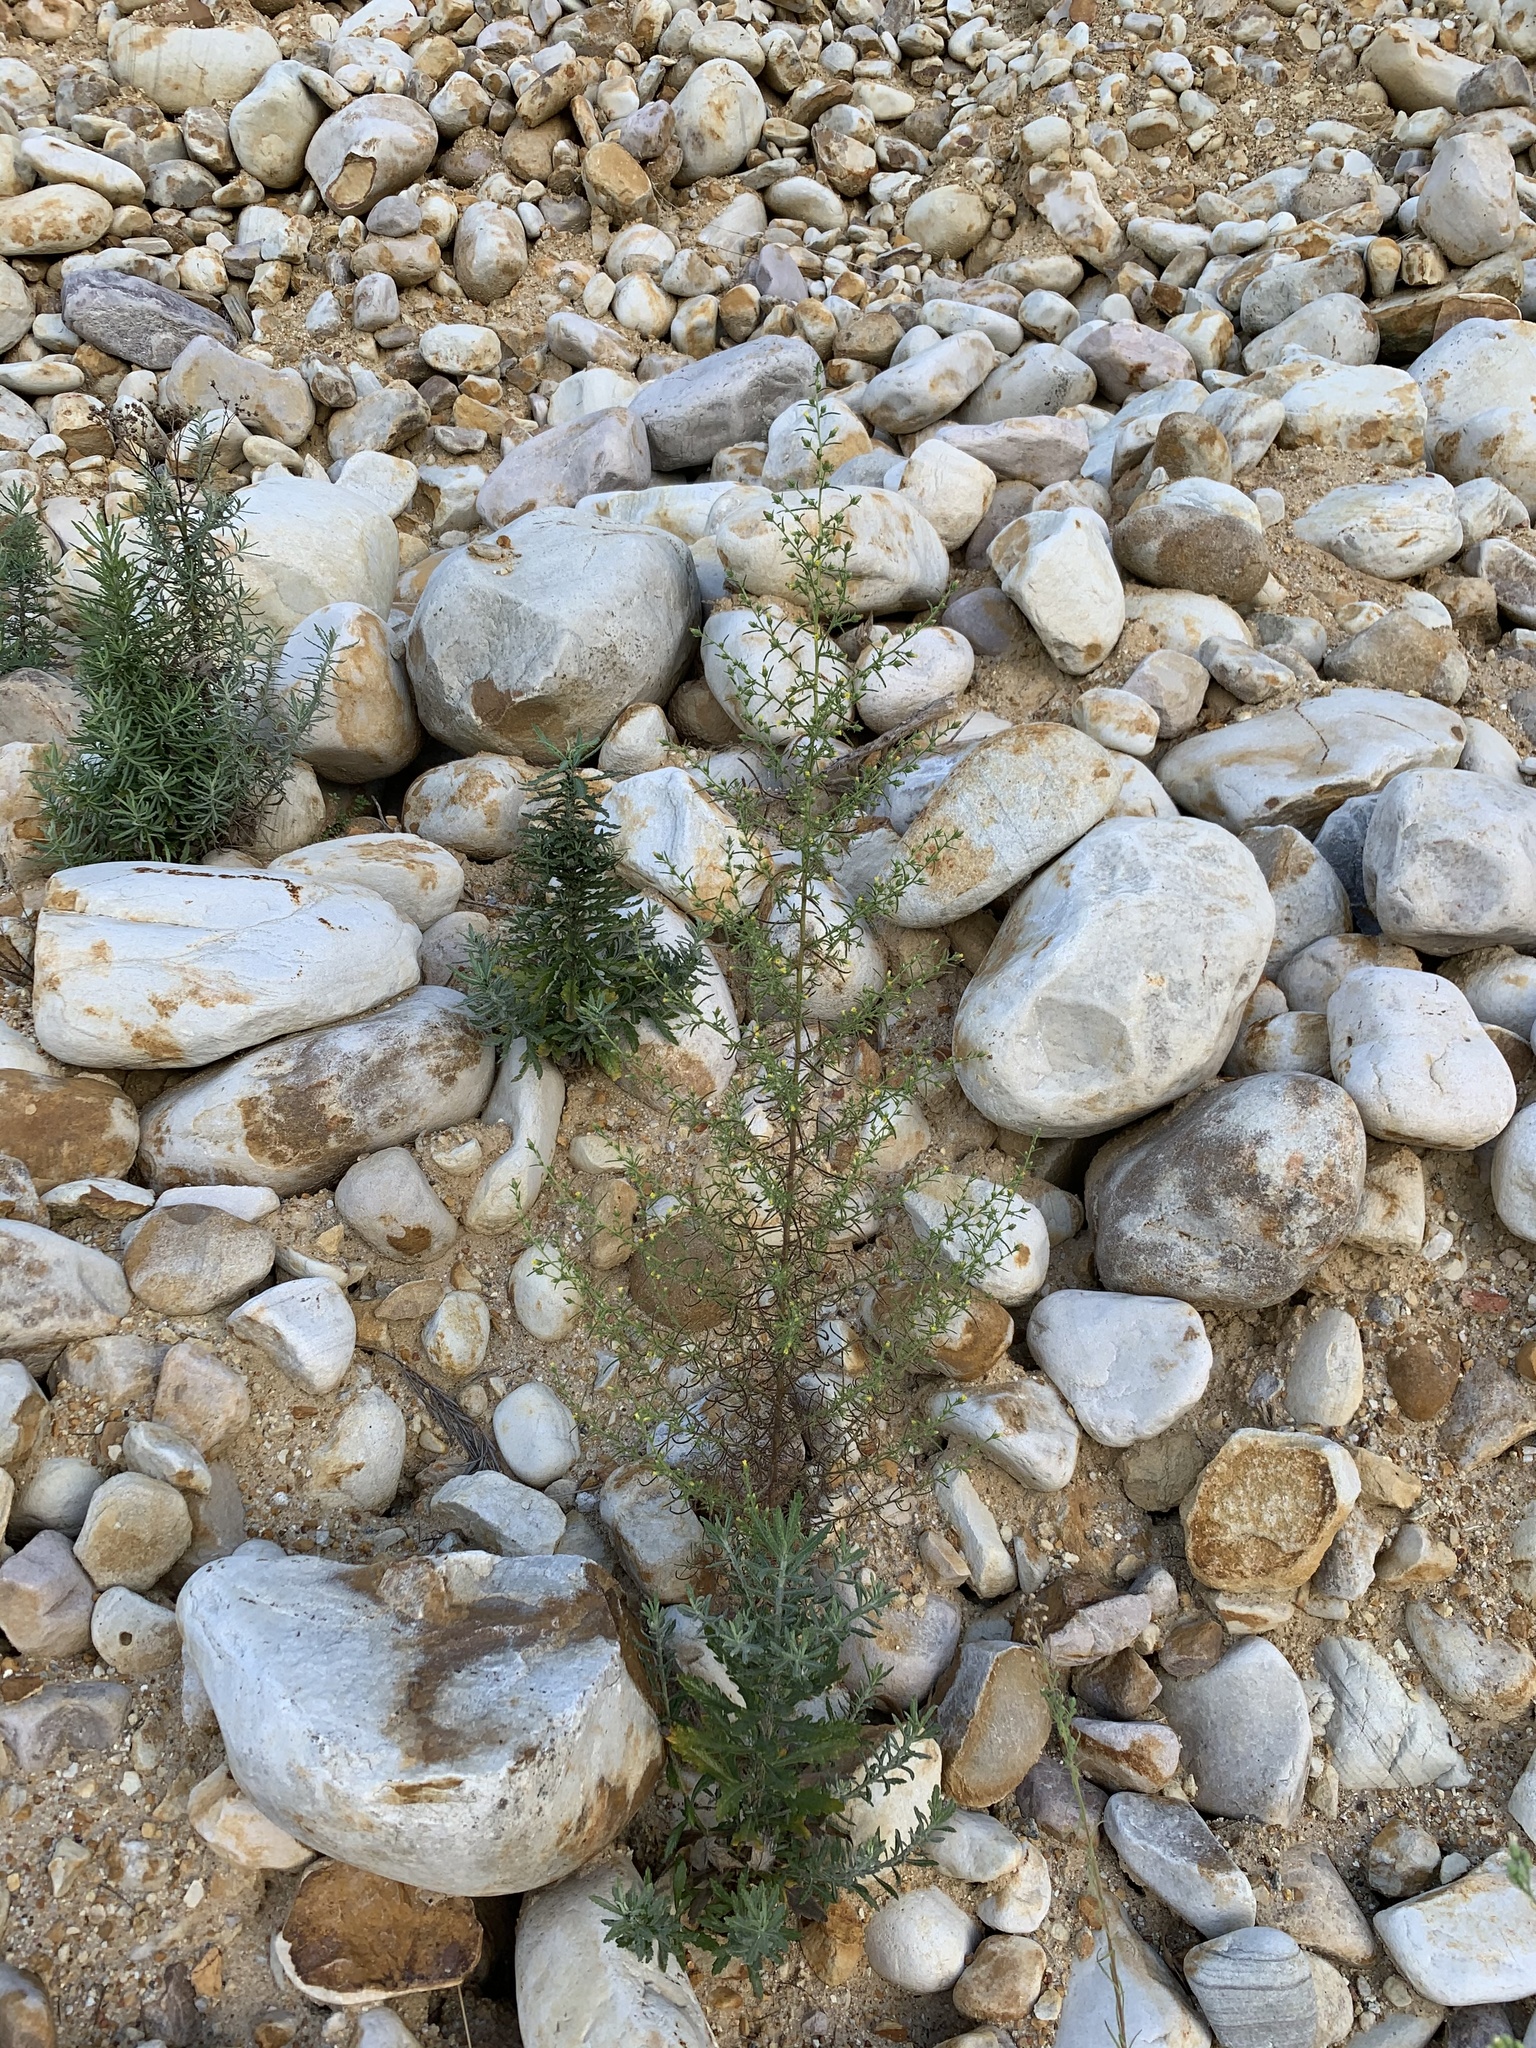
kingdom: Plantae
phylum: Tracheophyta
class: Magnoliopsida
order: Asterales
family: Asteraceae
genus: Dittrichia
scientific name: Dittrichia graveolens
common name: Stinking fleabane
